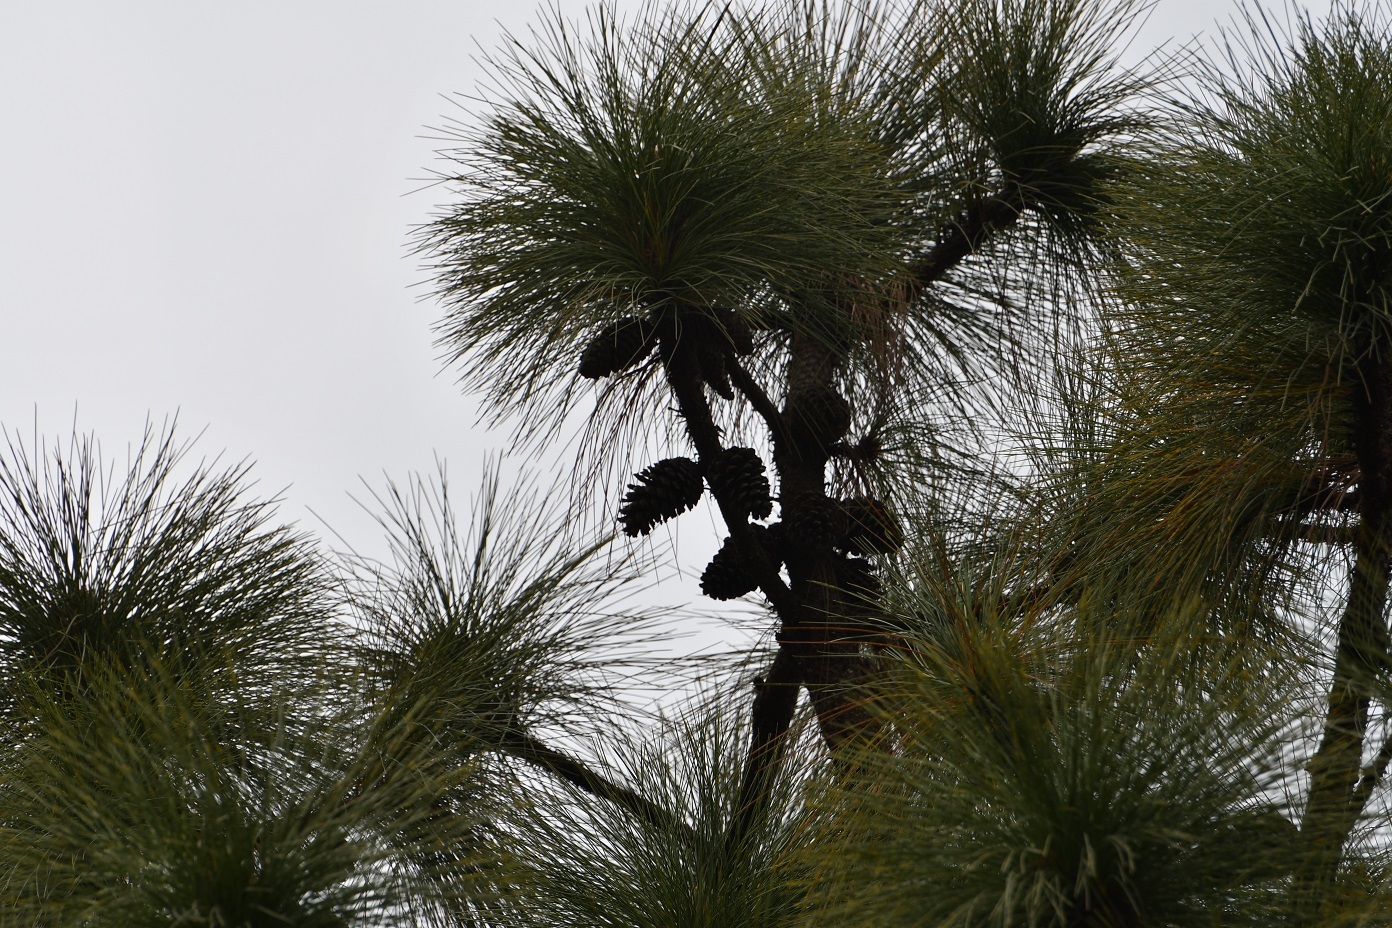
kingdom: Plantae
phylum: Tracheophyta
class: Pinopsida
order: Pinales
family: Pinaceae
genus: Pinus
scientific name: Pinus montezumae
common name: Montezuma pine
